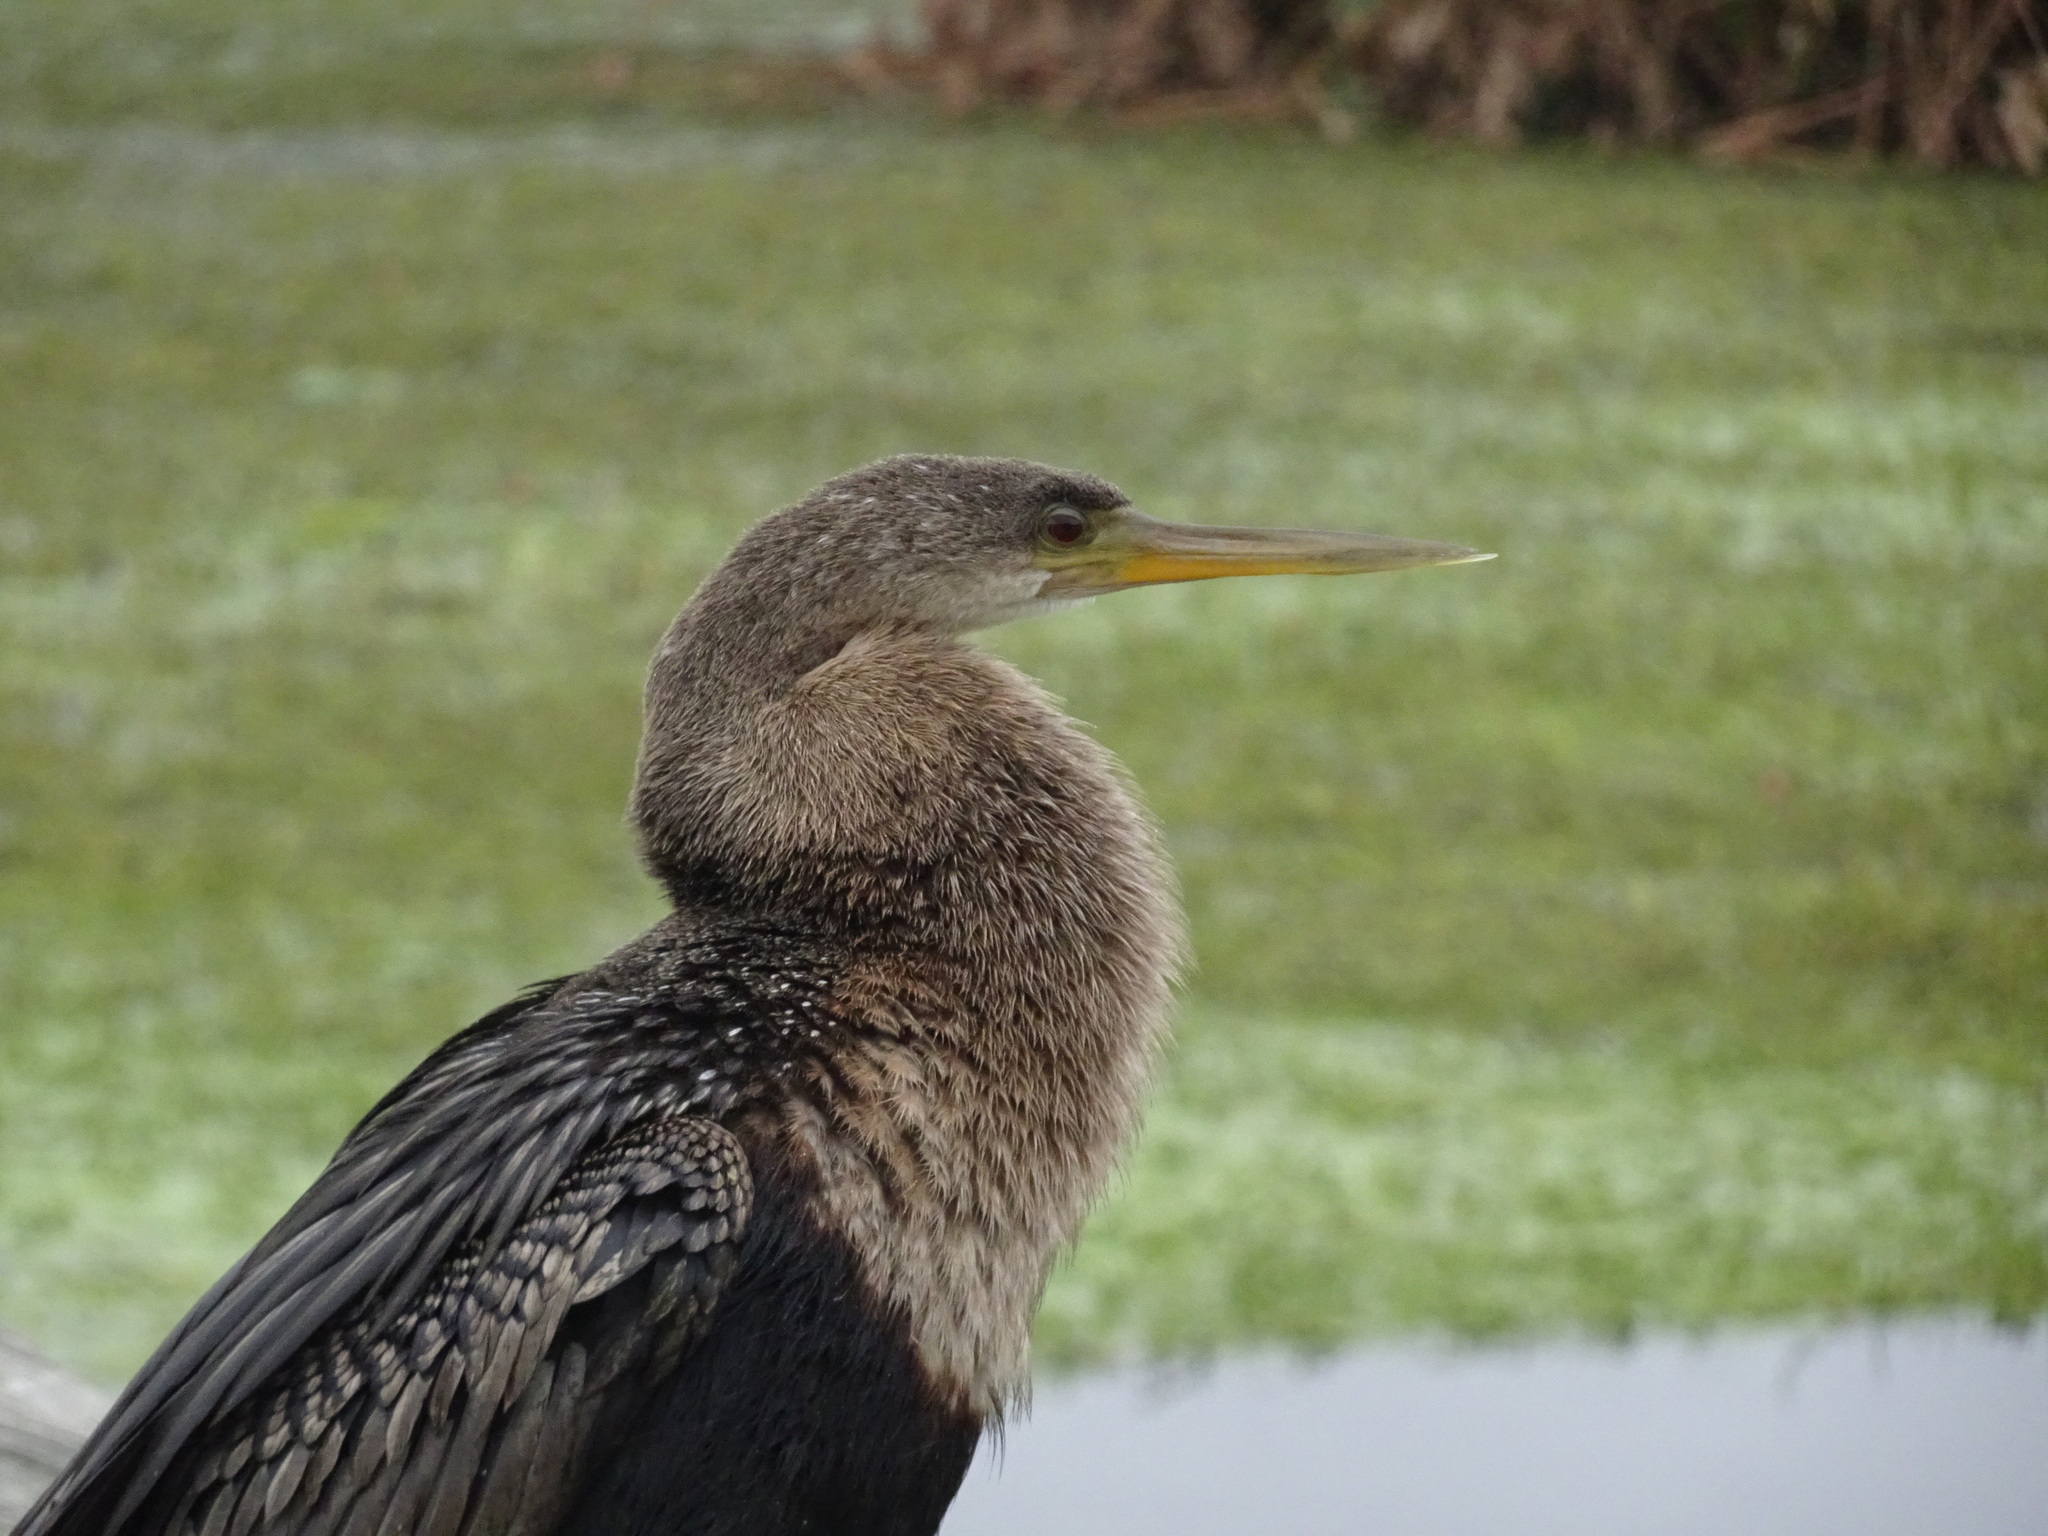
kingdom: Animalia
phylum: Chordata
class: Aves
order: Suliformes
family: Anhingidae
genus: Anhinga
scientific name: Anhinga anhinga
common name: Anhinga
